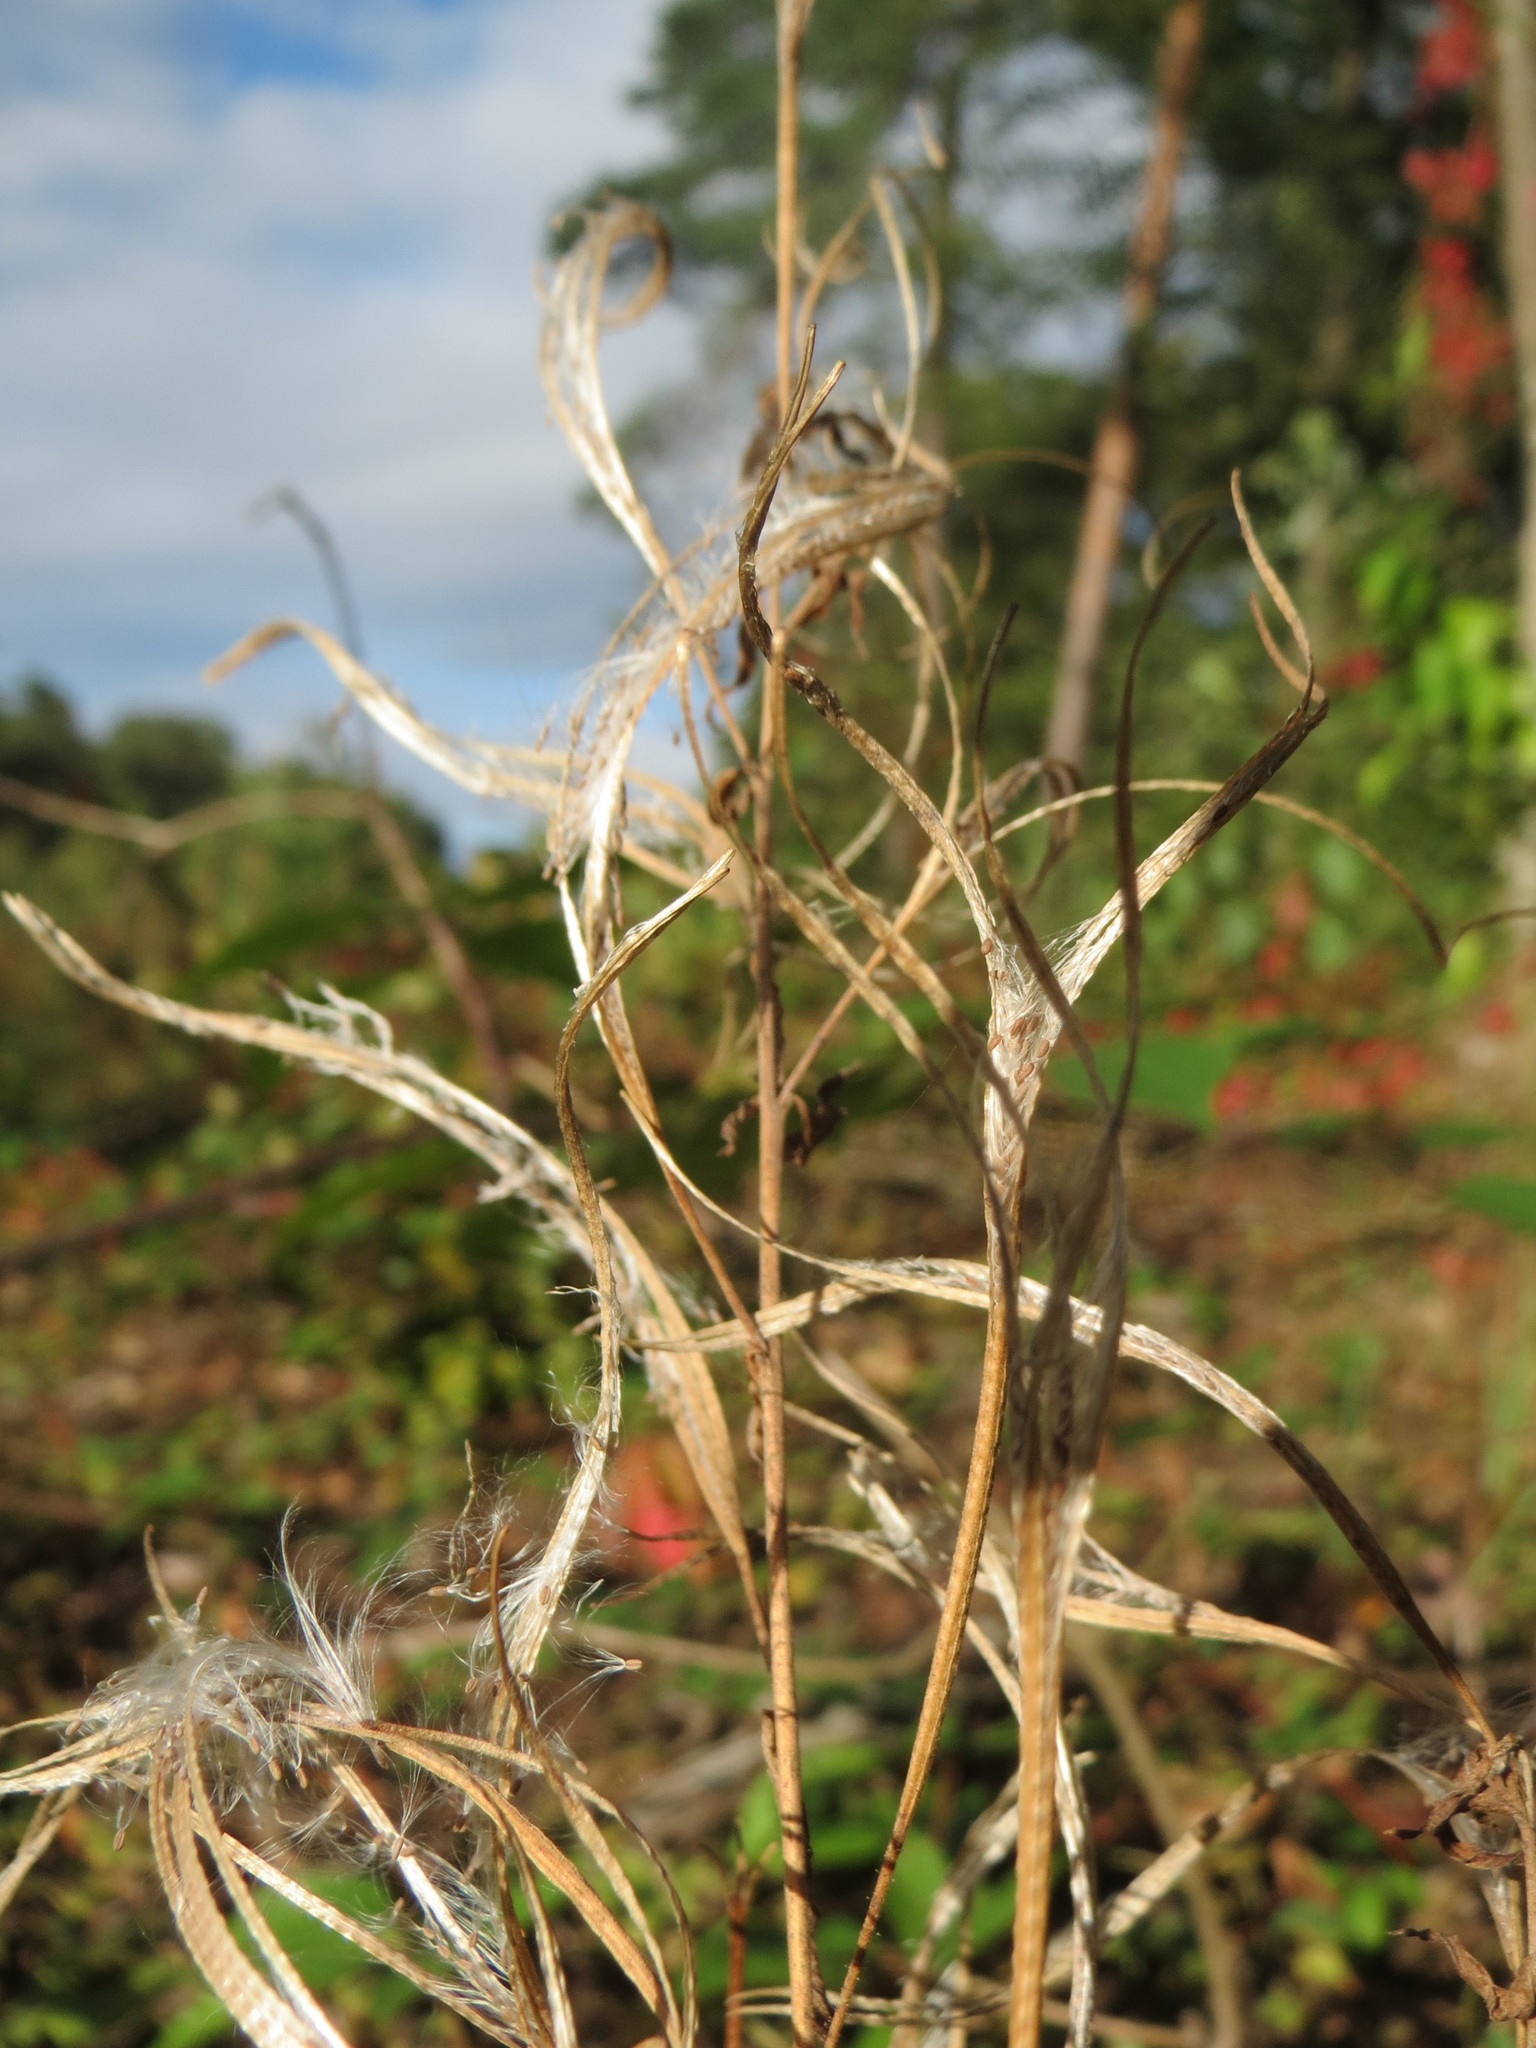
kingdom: Plantae
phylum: Tracheophyta
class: Magnoliopsida
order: Myrtales
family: Onagraceae
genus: Chamaenerion
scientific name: Chamaenerion angustifolium
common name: Fireweed
